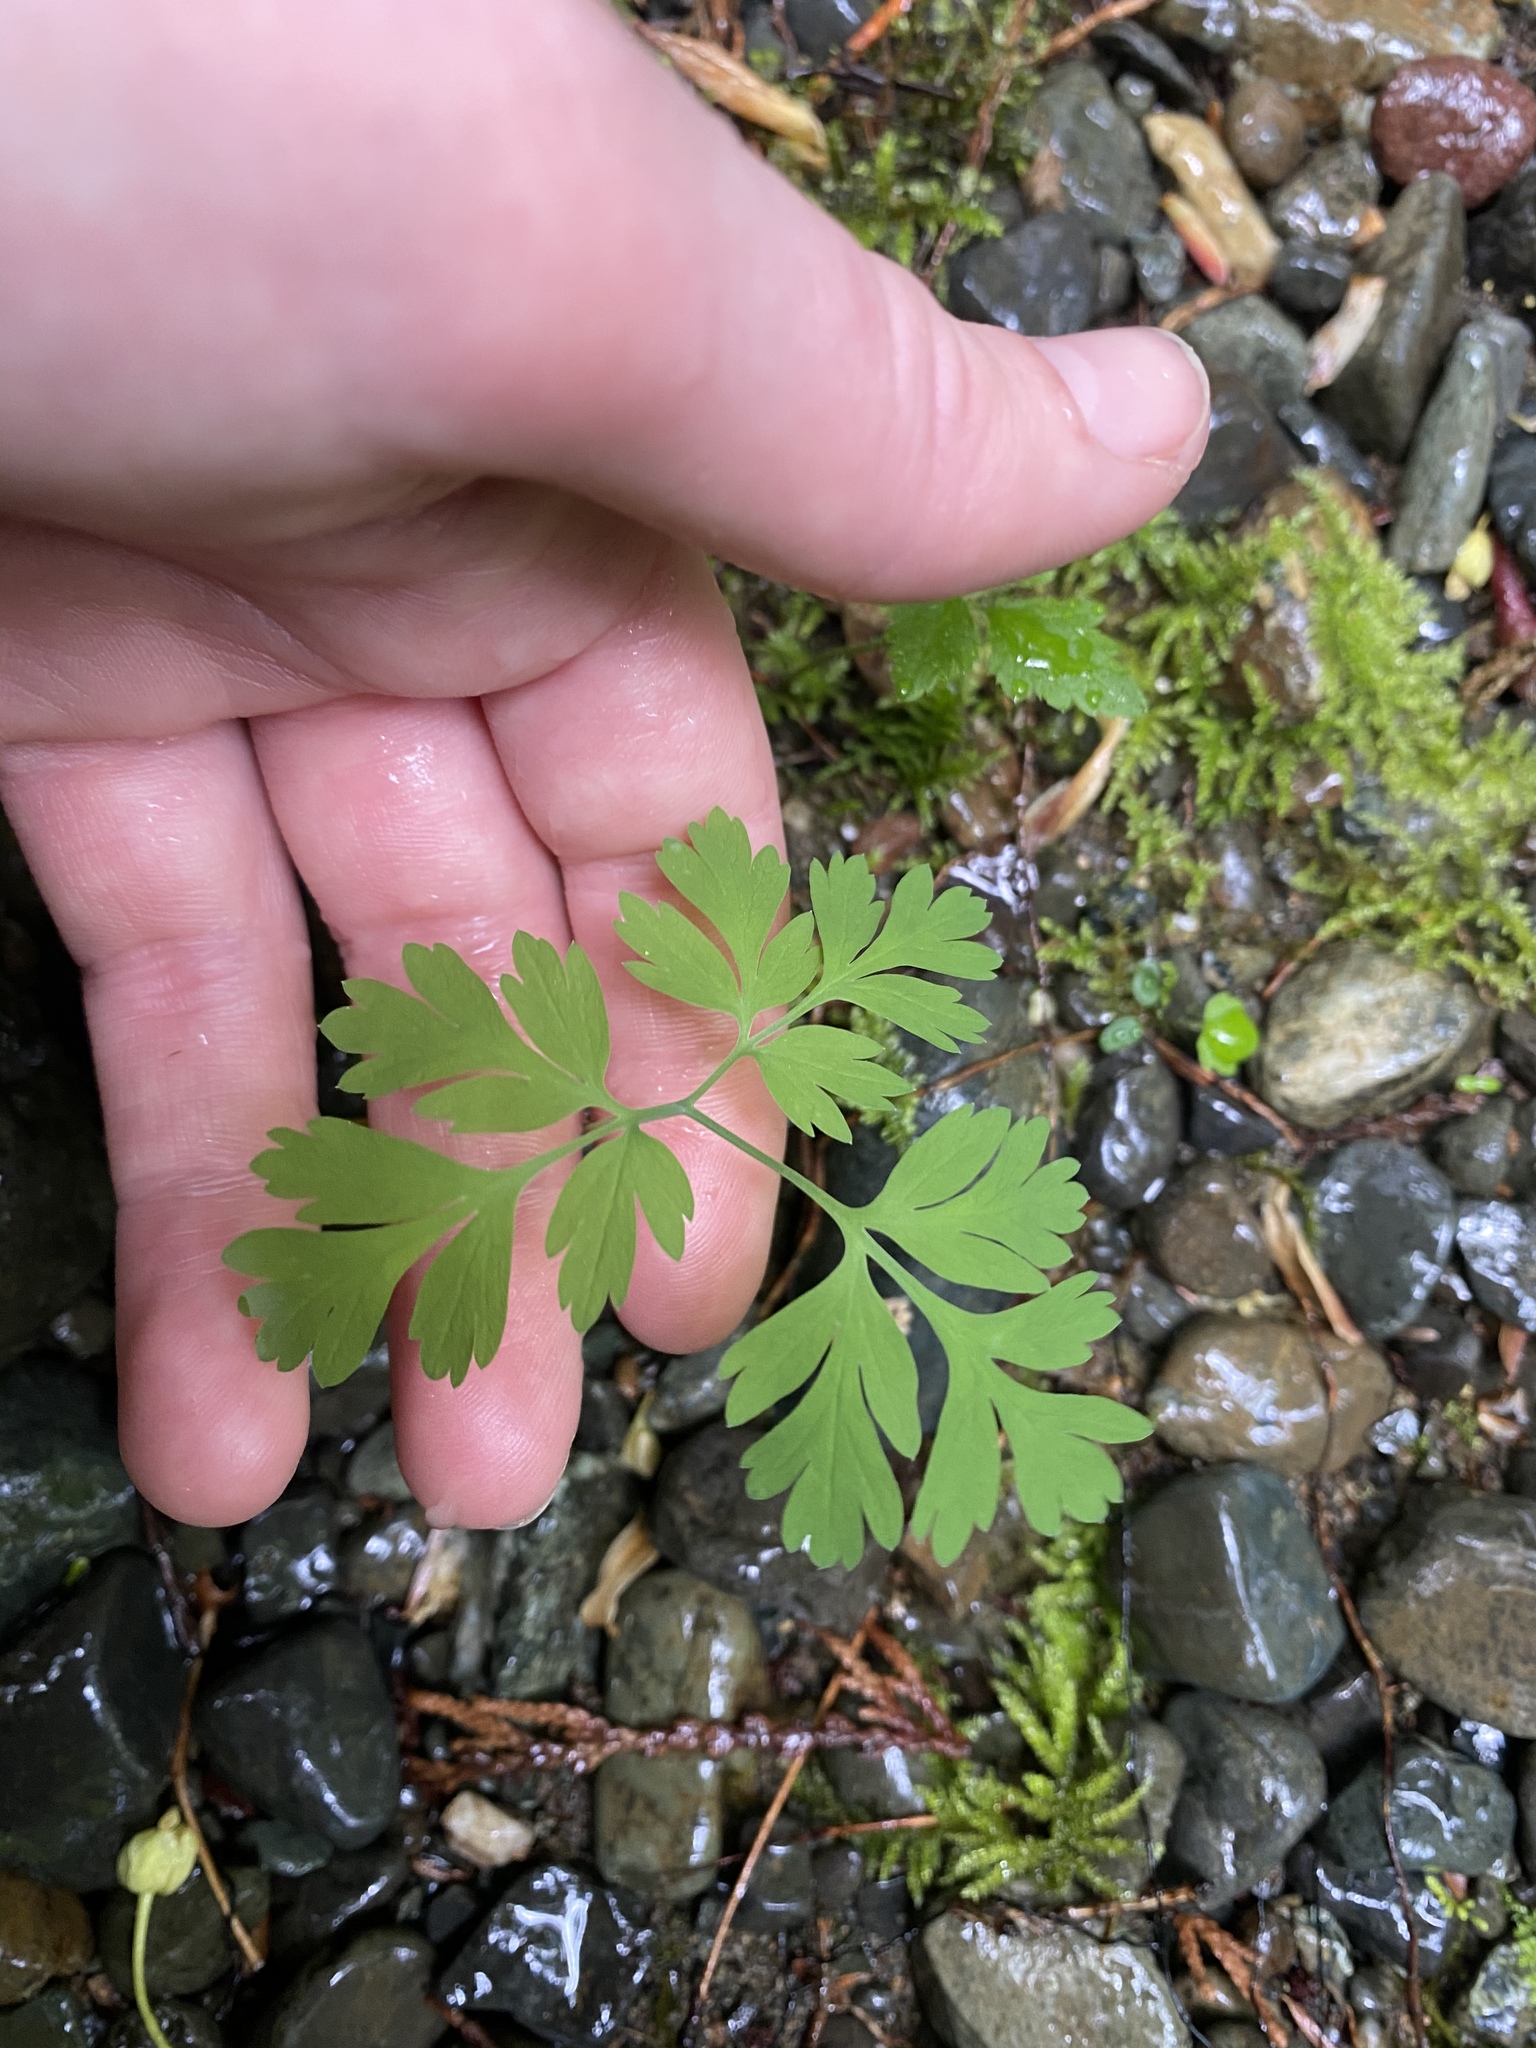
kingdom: Plantae
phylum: Tracheophyta
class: Magnoliopsida
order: Ranunculales
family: Papaveraceae
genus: Dicentra
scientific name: Dicentra formosa
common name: Bleeding-heart
